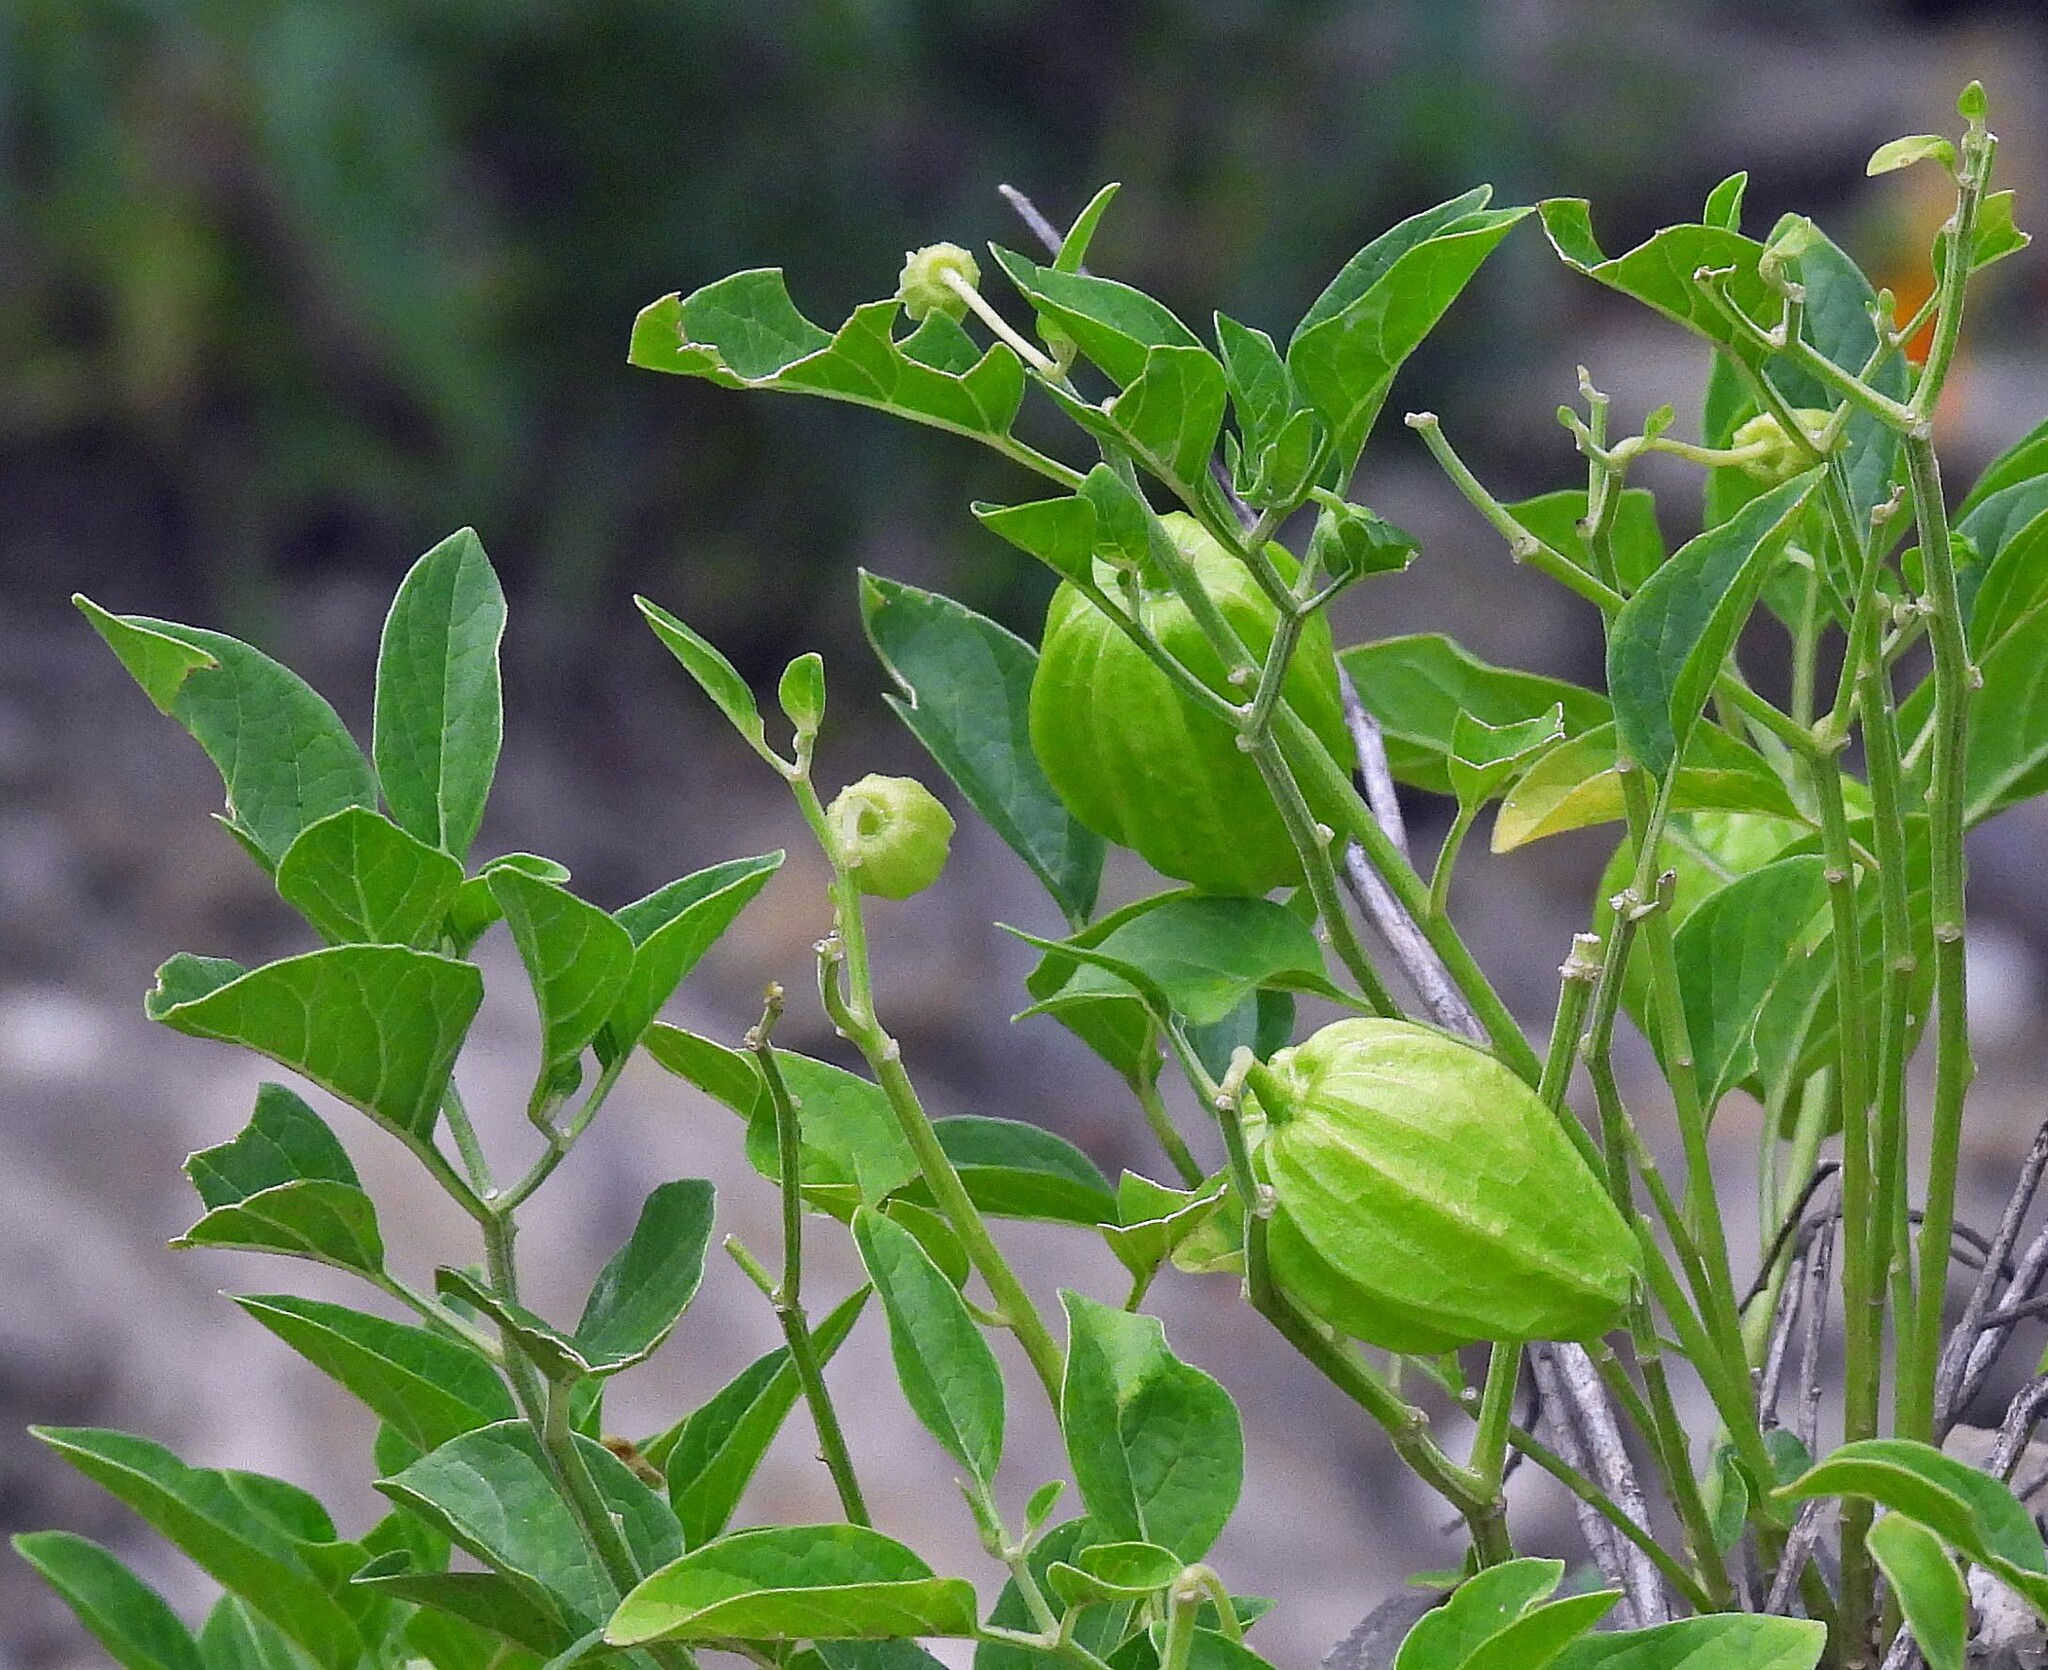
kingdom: Plantae
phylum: Tracheophyta
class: Magnoliopsida
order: Solanales
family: Solanaceae
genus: Physalis
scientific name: Physalis viscosa
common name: Stellate ground-cherry
